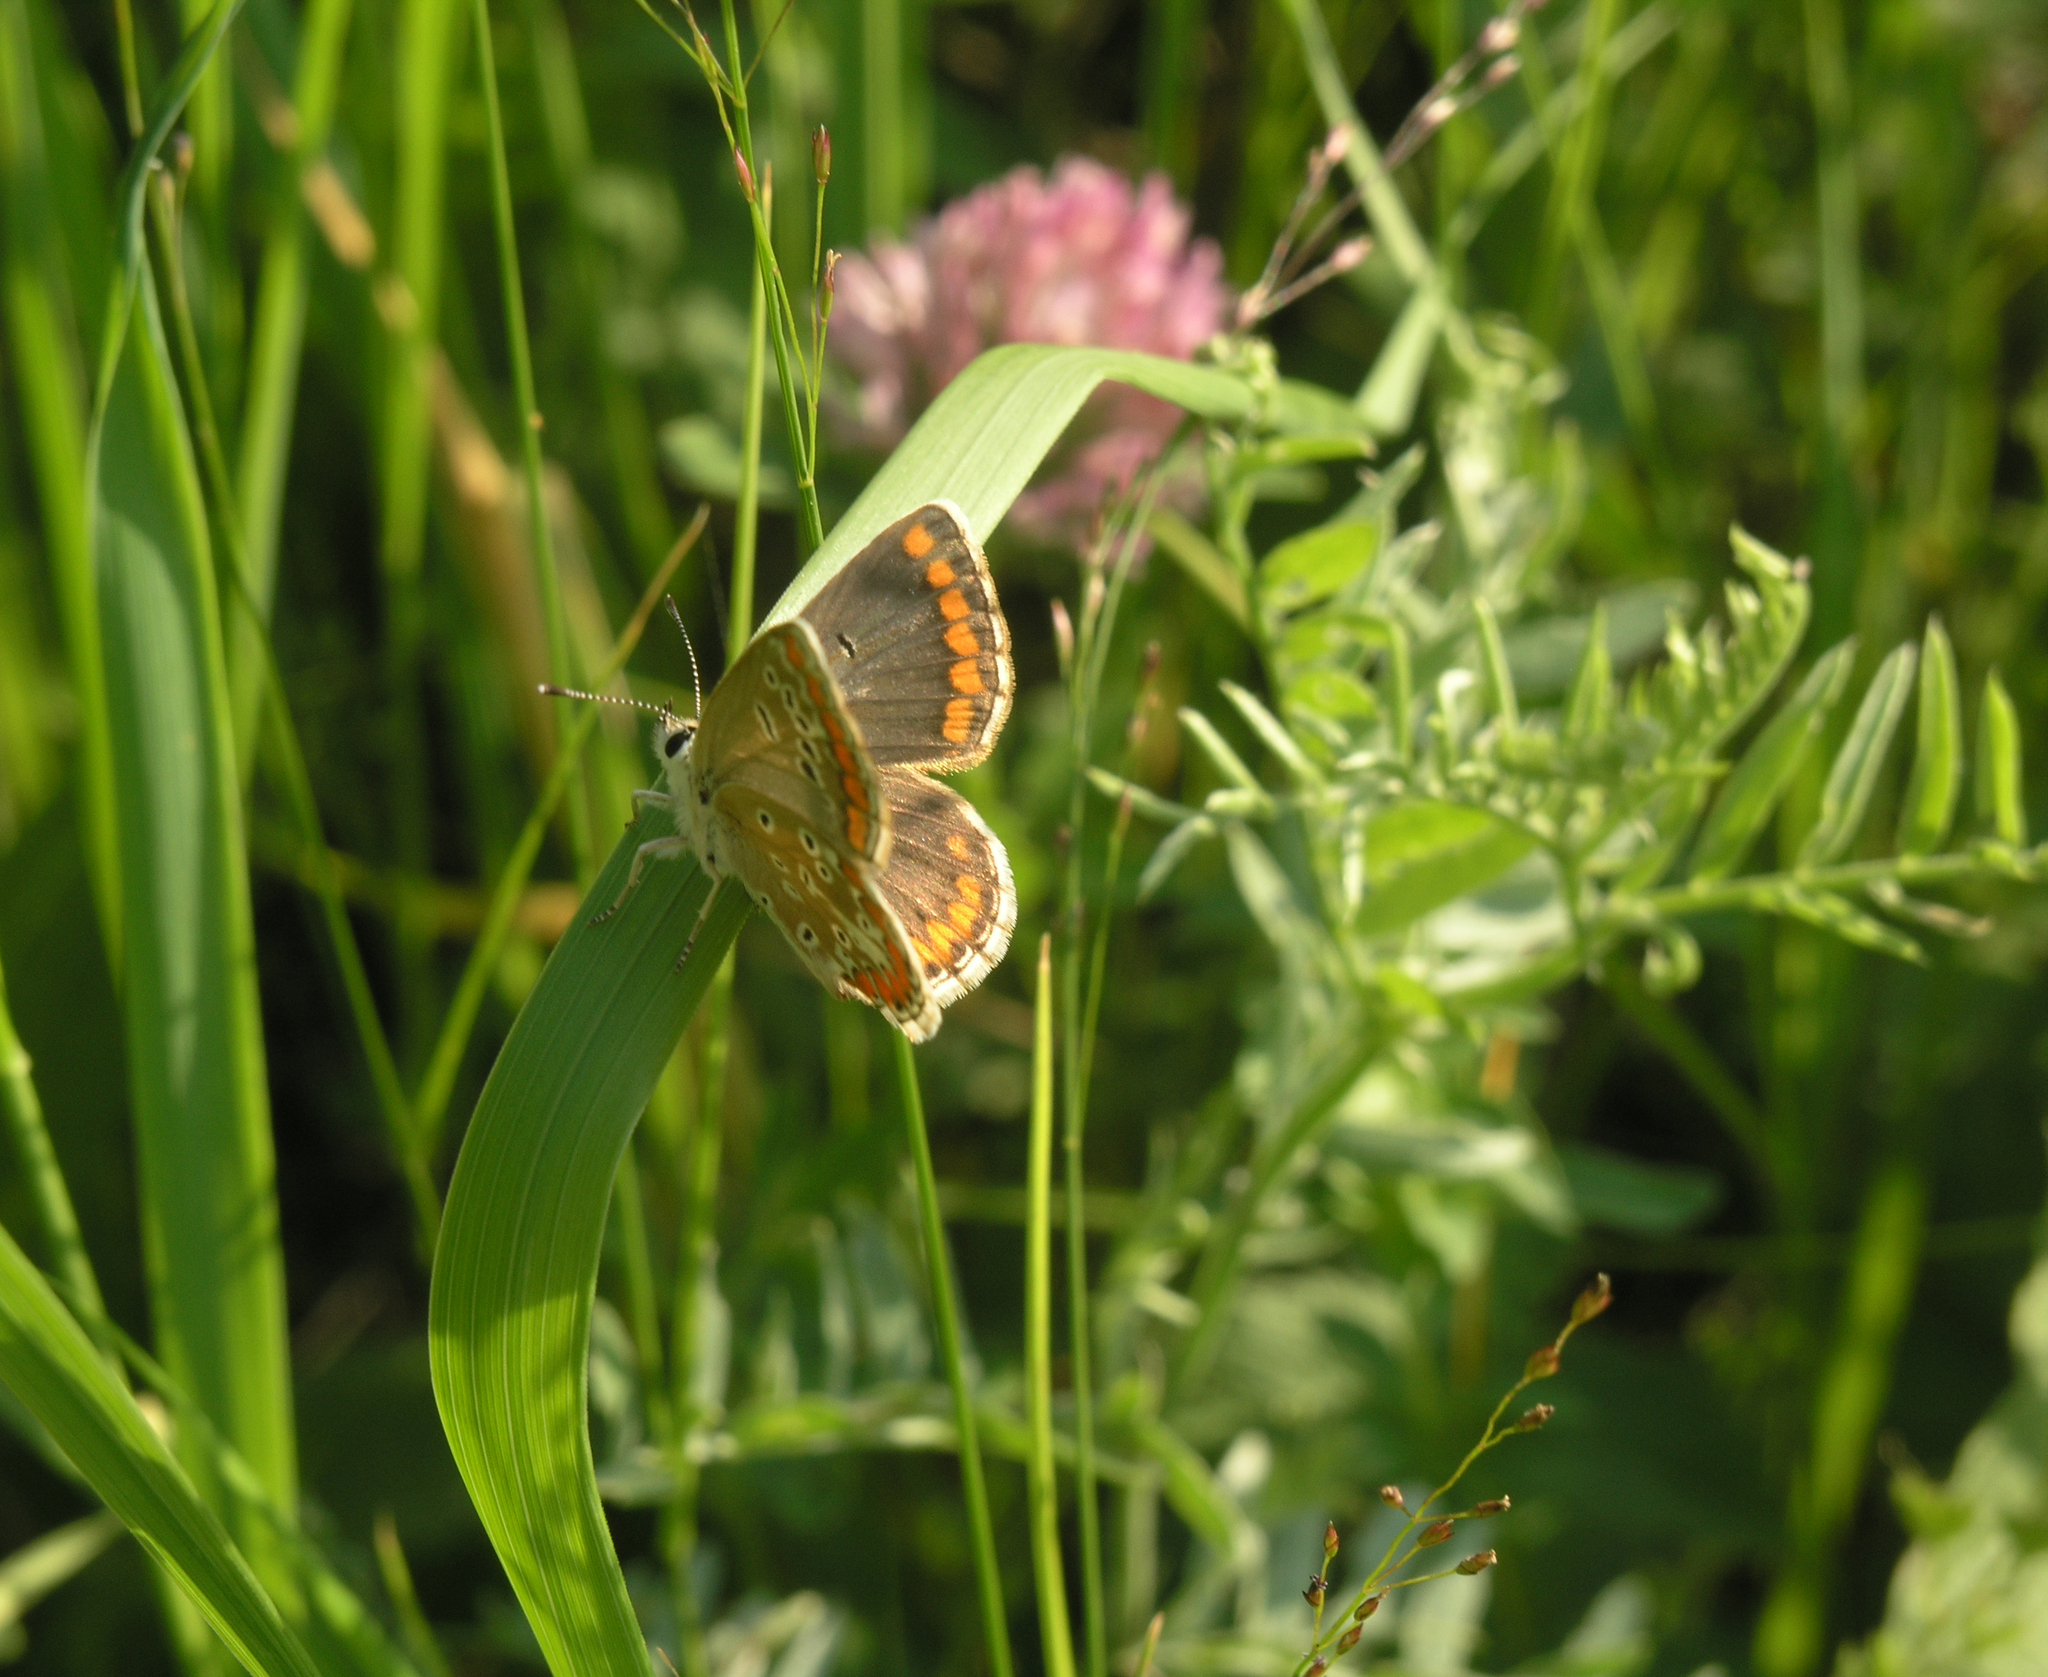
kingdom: Animalia
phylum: Arthropoda
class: Insecta
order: Lepidoptera
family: Lycaenidae
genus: Aricia
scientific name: Aricia agestis
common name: Brown argus
